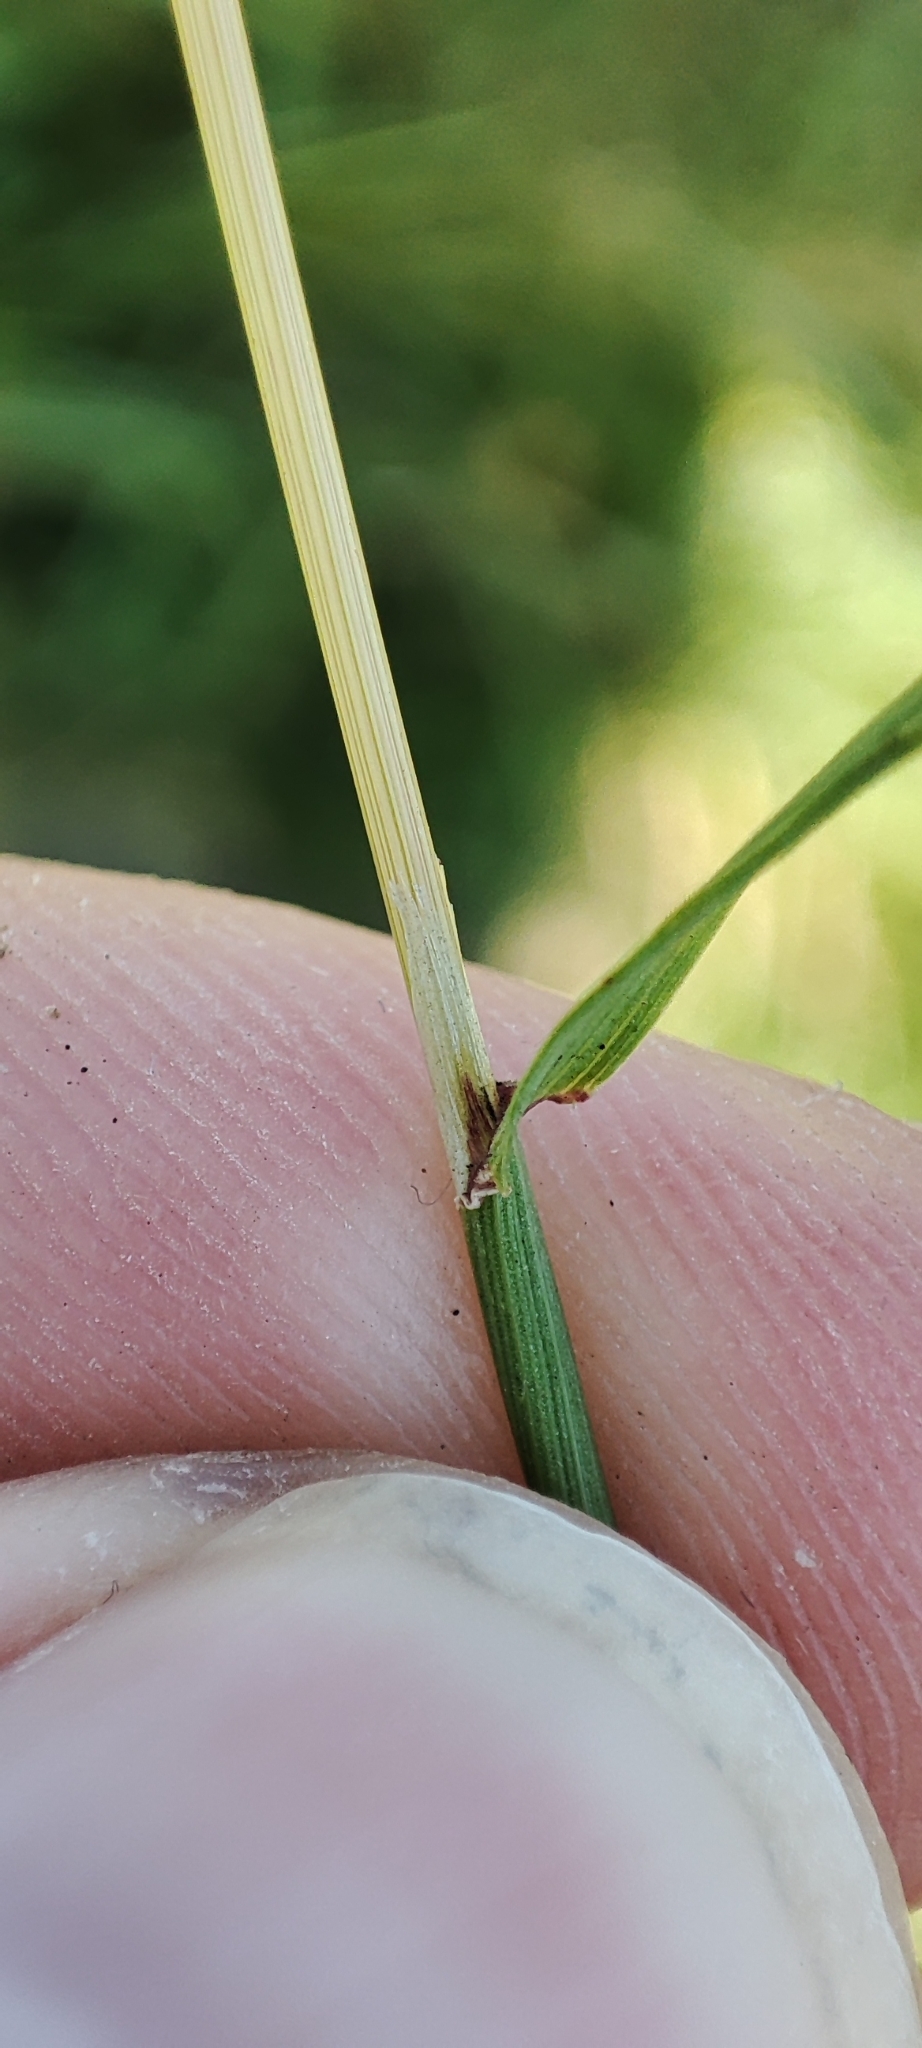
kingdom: Plantae
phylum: Tracheophyta
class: Liliopsida
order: Poales
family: Poaceae
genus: Agrostis
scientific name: Agrostis gigantea
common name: Black bent
